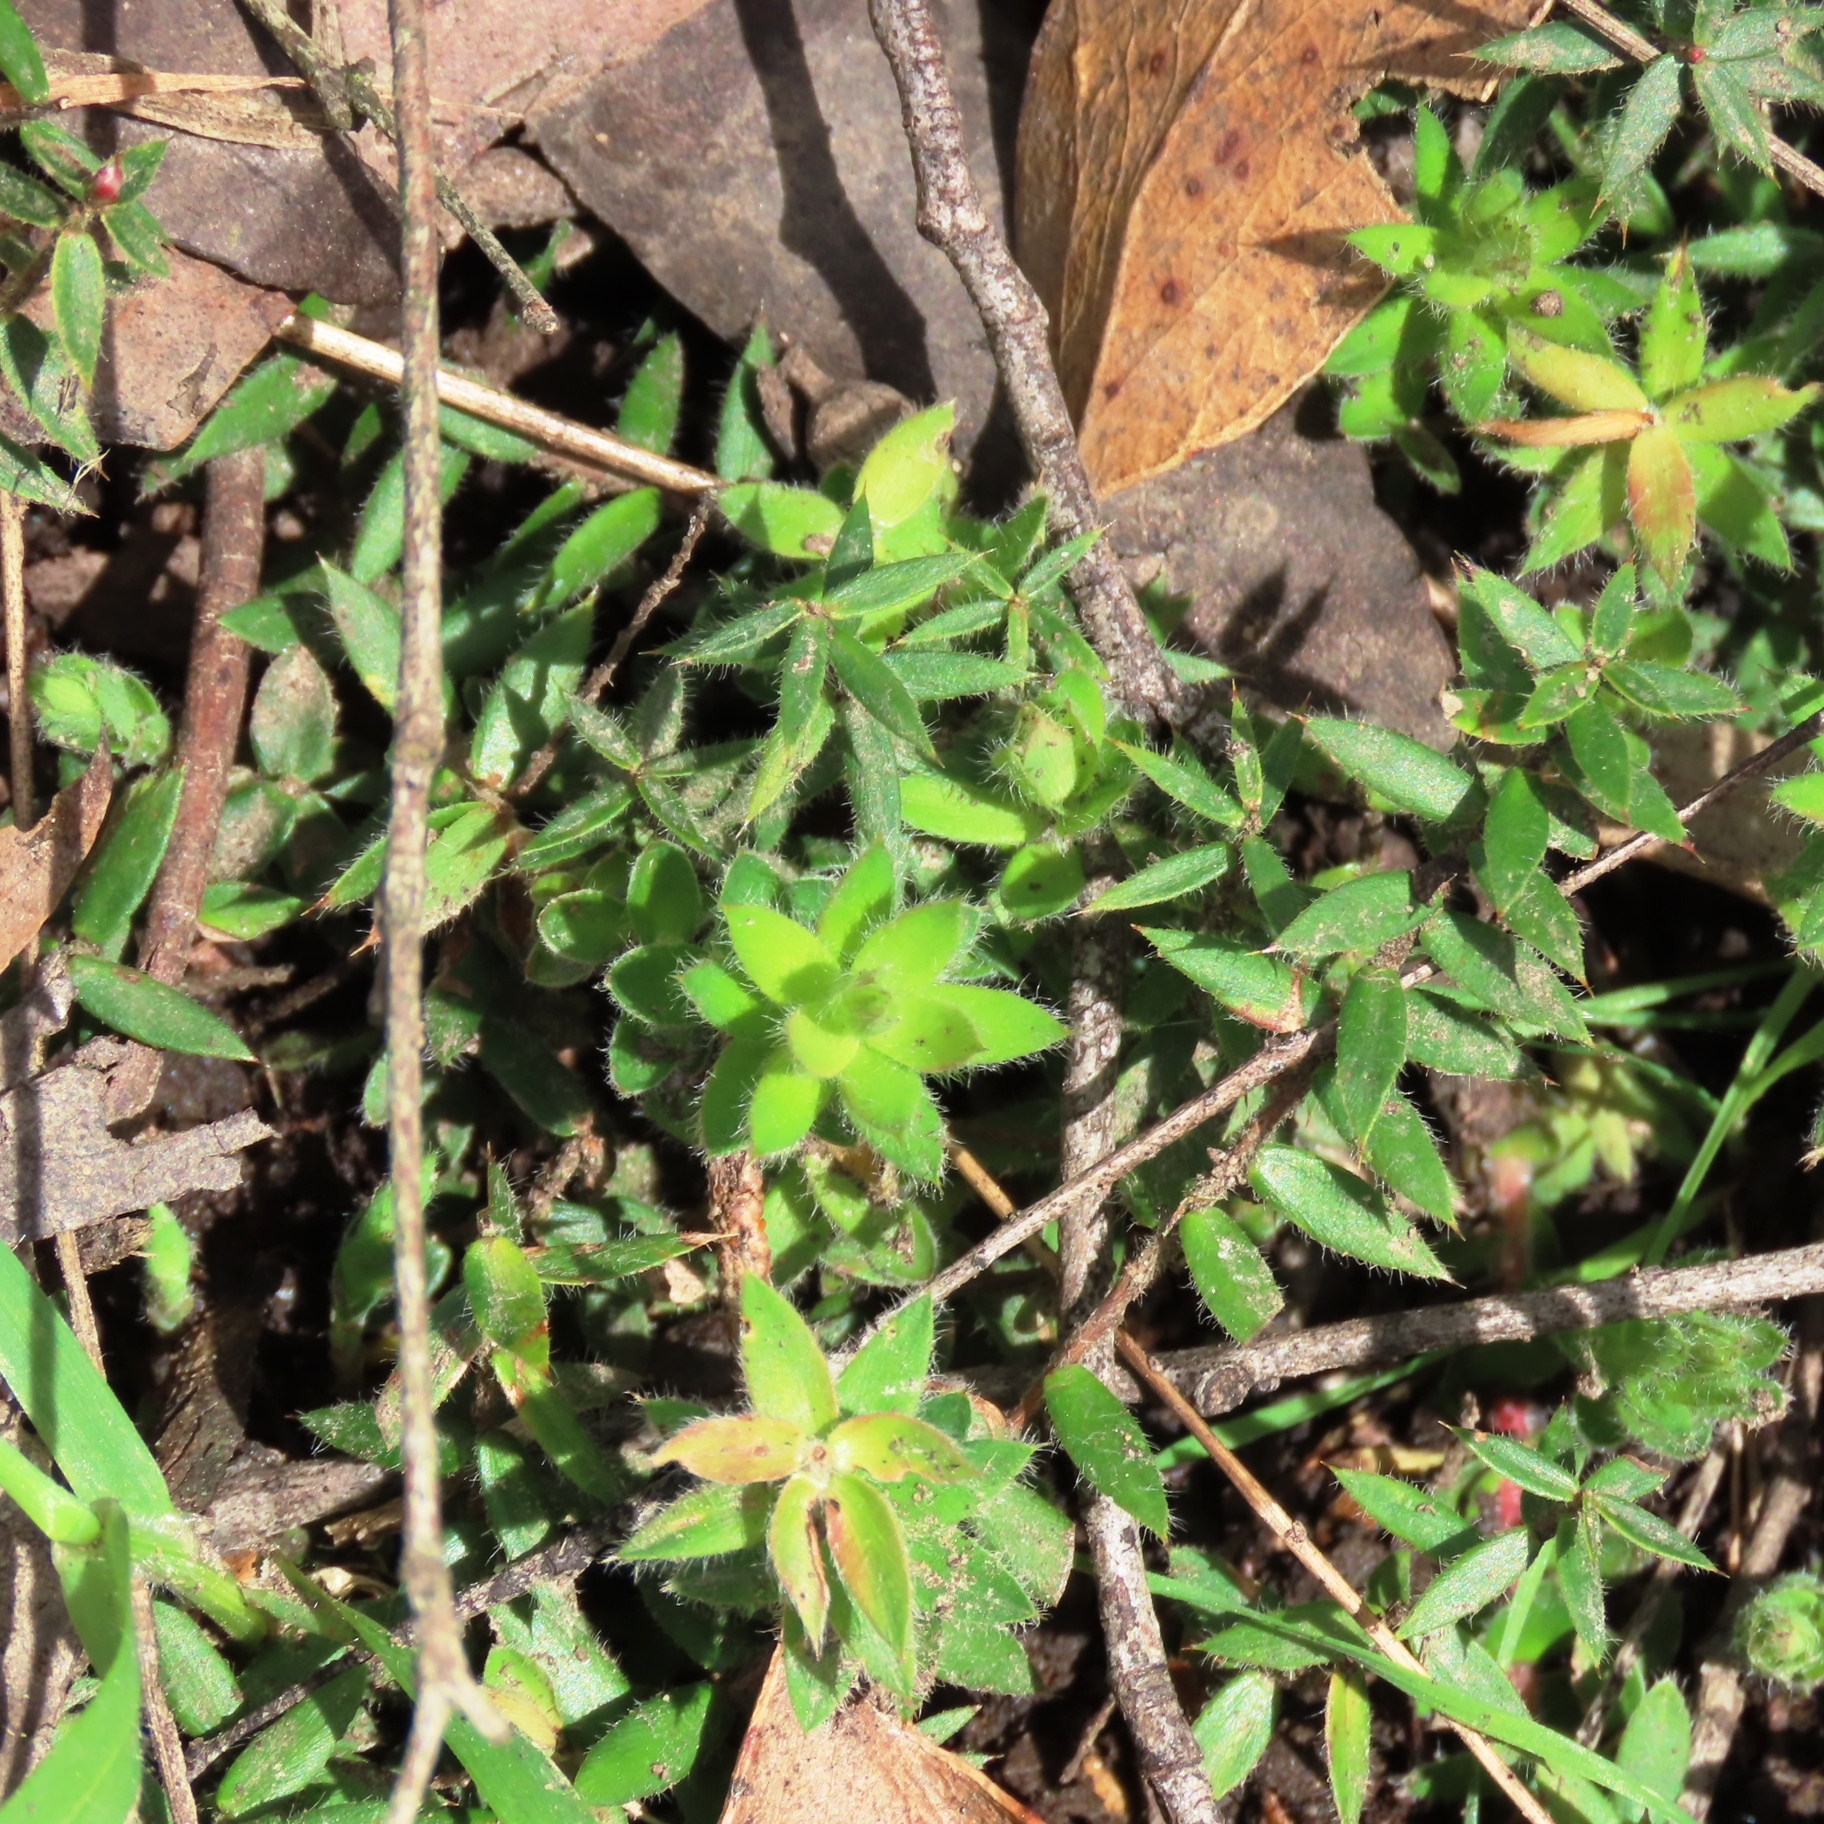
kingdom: Plantae
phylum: Tracheophyta
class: Magnoliopsida
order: Ericales
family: Ericaceae
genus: Acrotriche
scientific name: Acrotriche prostrata
